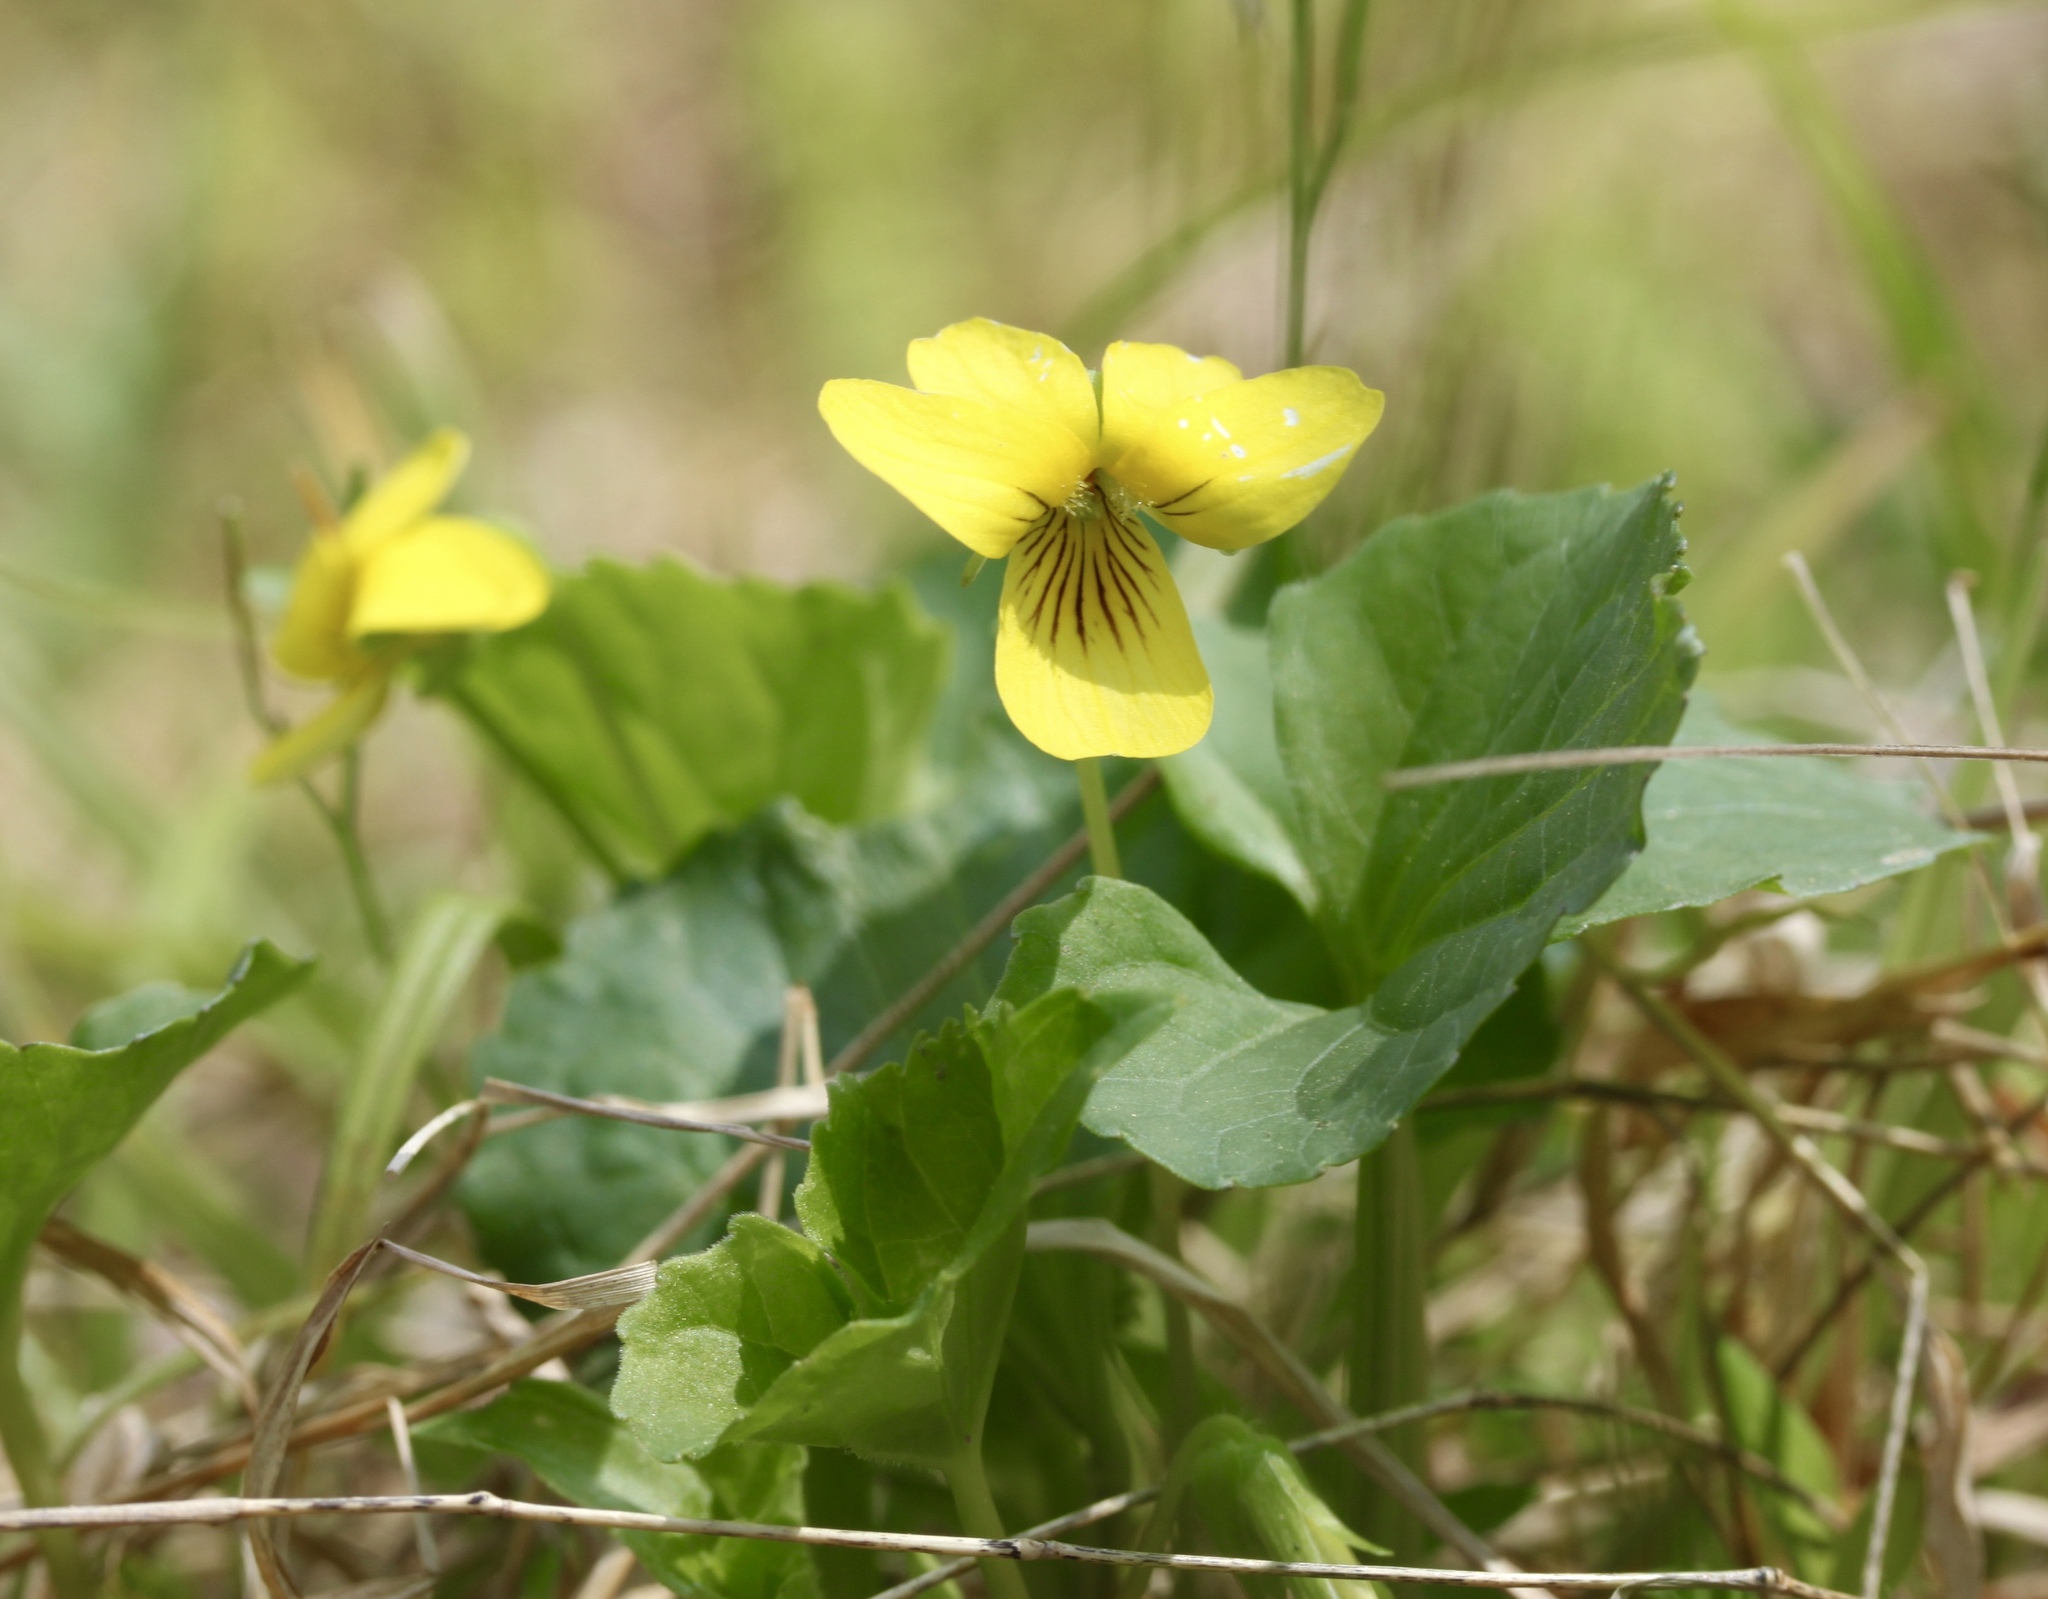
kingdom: Plantae
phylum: Tracheophyta
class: Magnoliopsida
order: Malpighiales
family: Violaceae
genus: Viola
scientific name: Viola eriocarpa
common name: Smooth yellow violet
